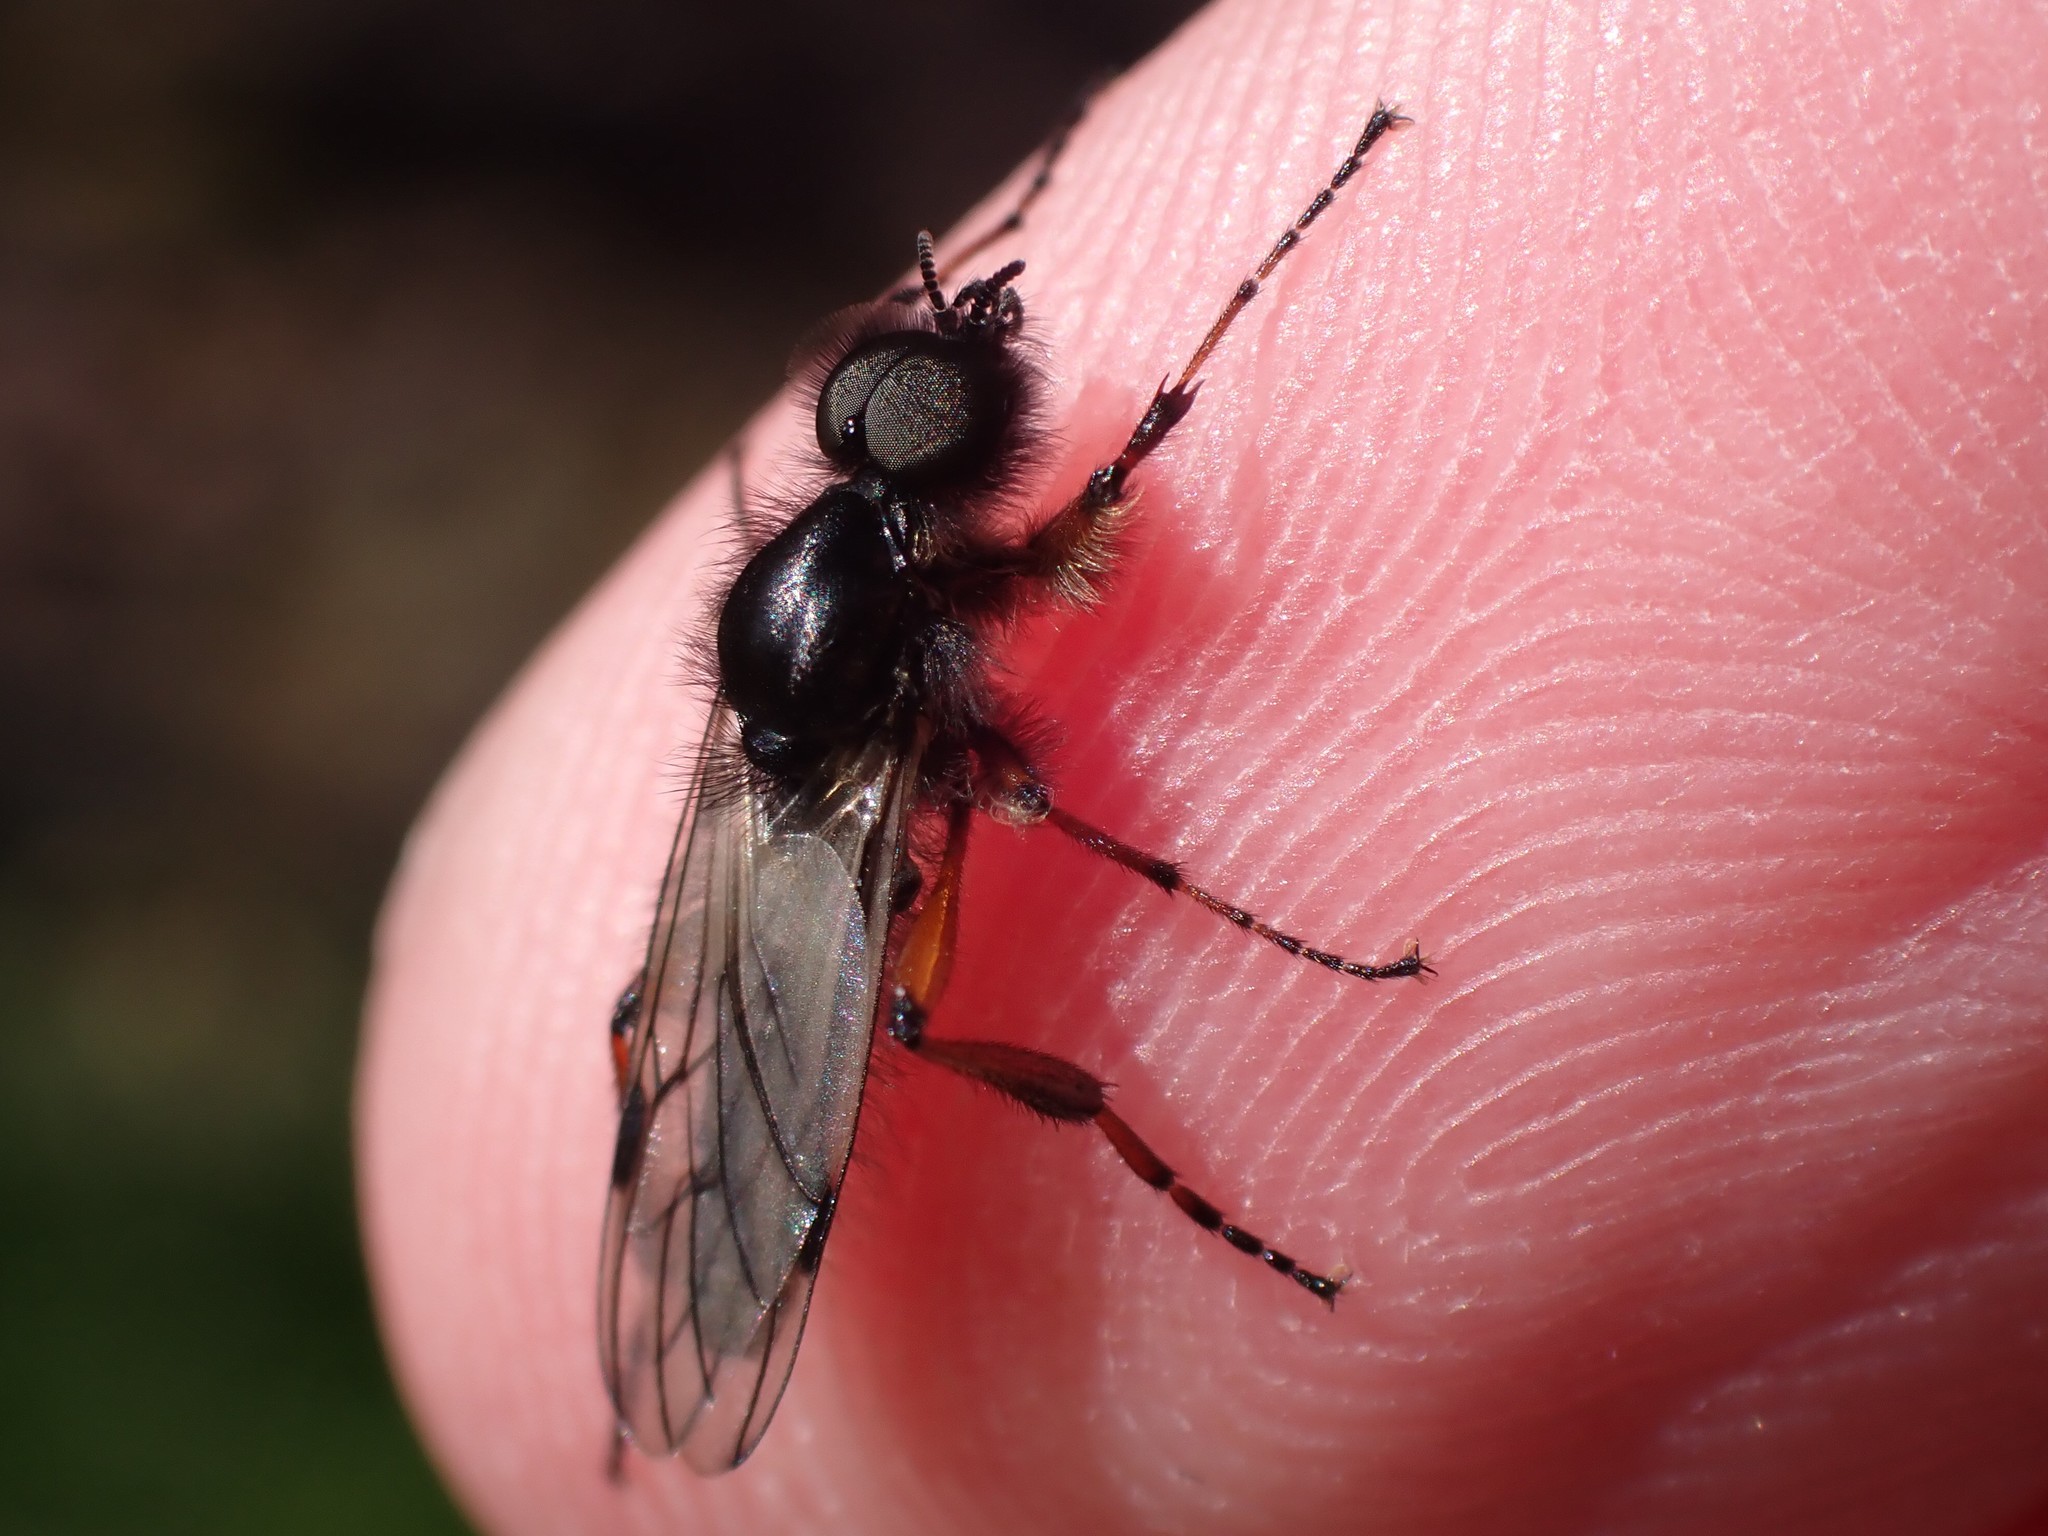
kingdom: Animalia
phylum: Arthropoda
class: Insecta
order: Diptera
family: Bibionidae
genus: Bibio
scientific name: Bibio
